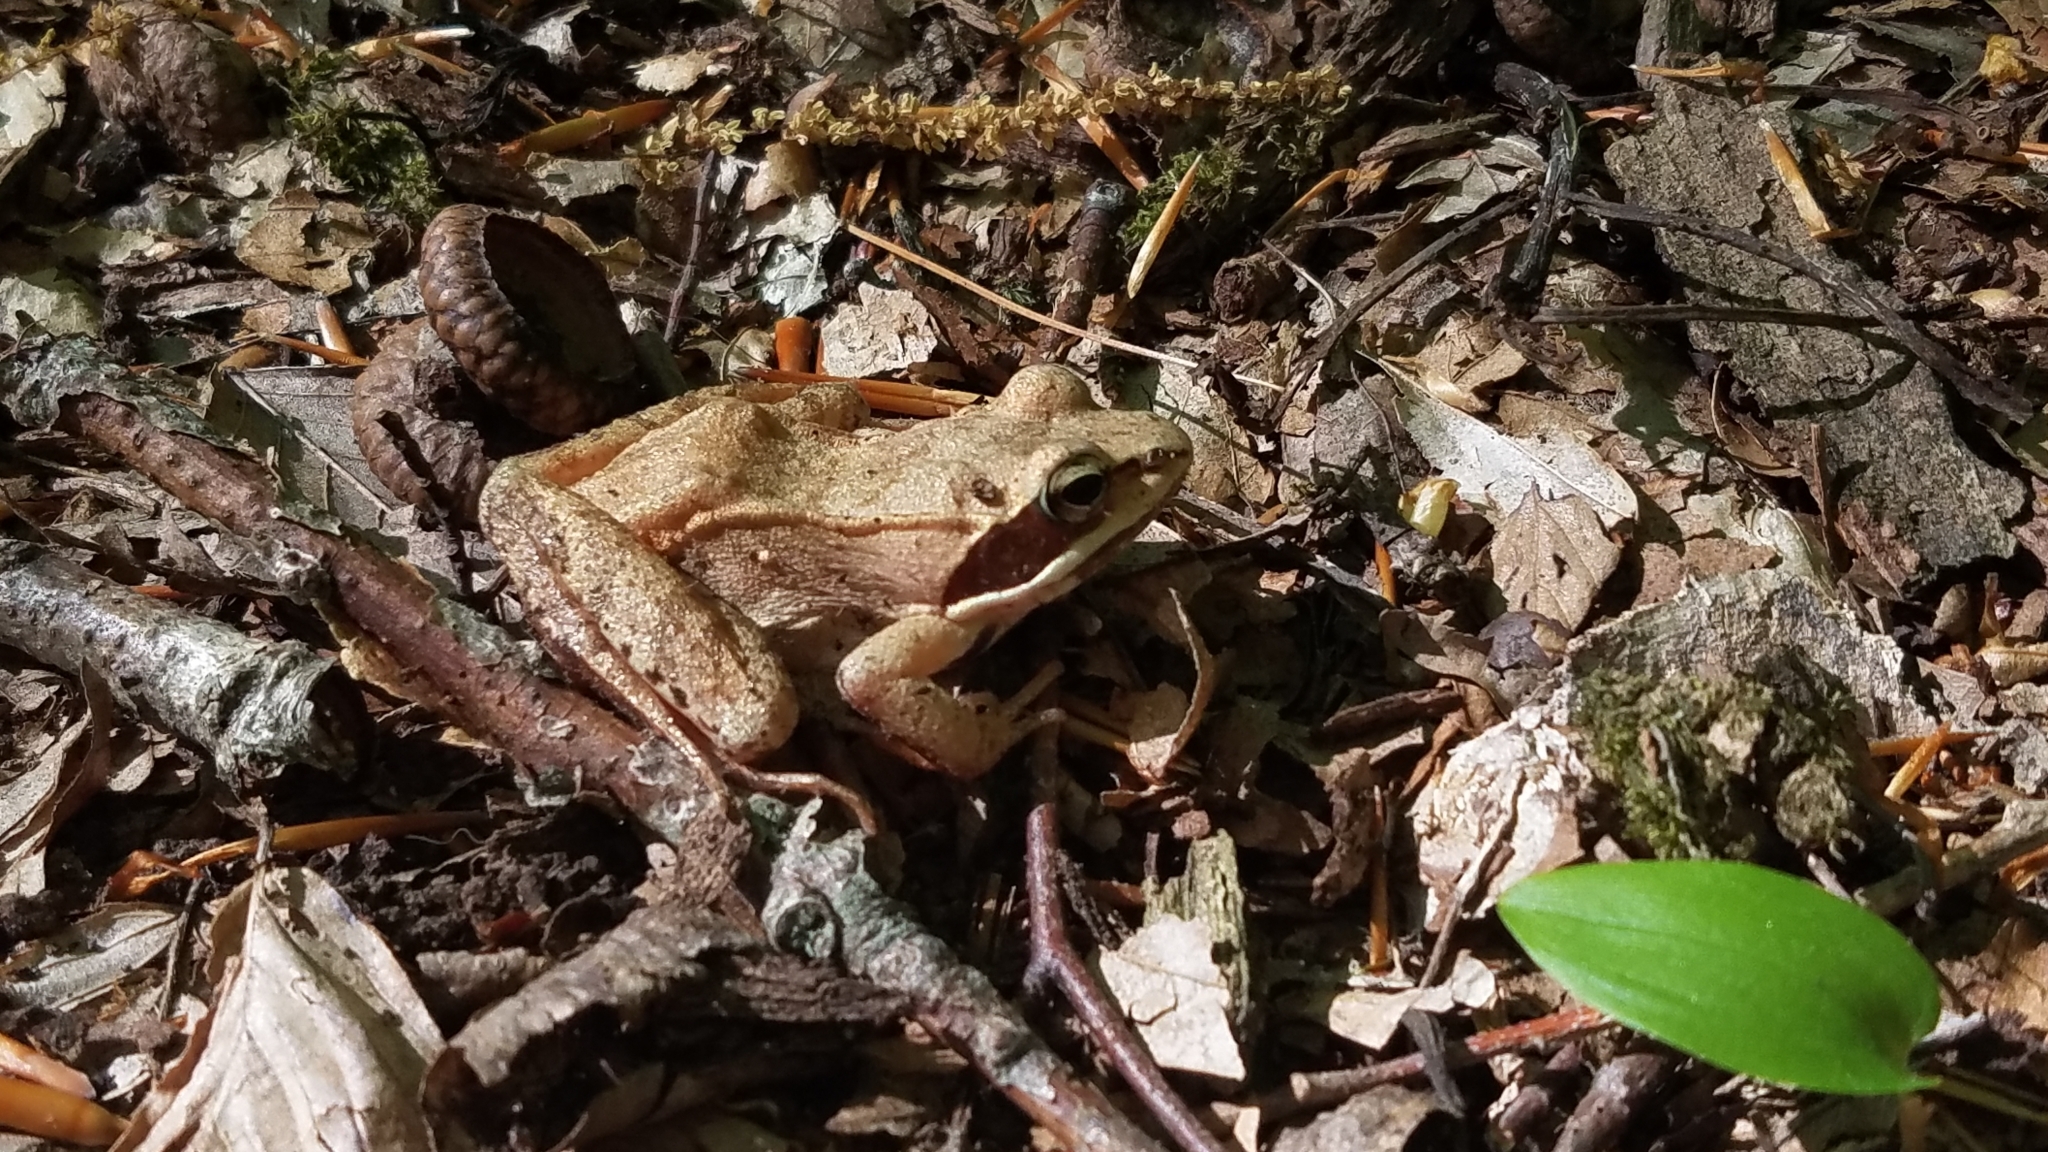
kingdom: Animalia
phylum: Chordata
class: Amphibia
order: Anura
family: Ranidae
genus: Lithobates
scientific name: Lithobates sylvaticus
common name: Wood frog
